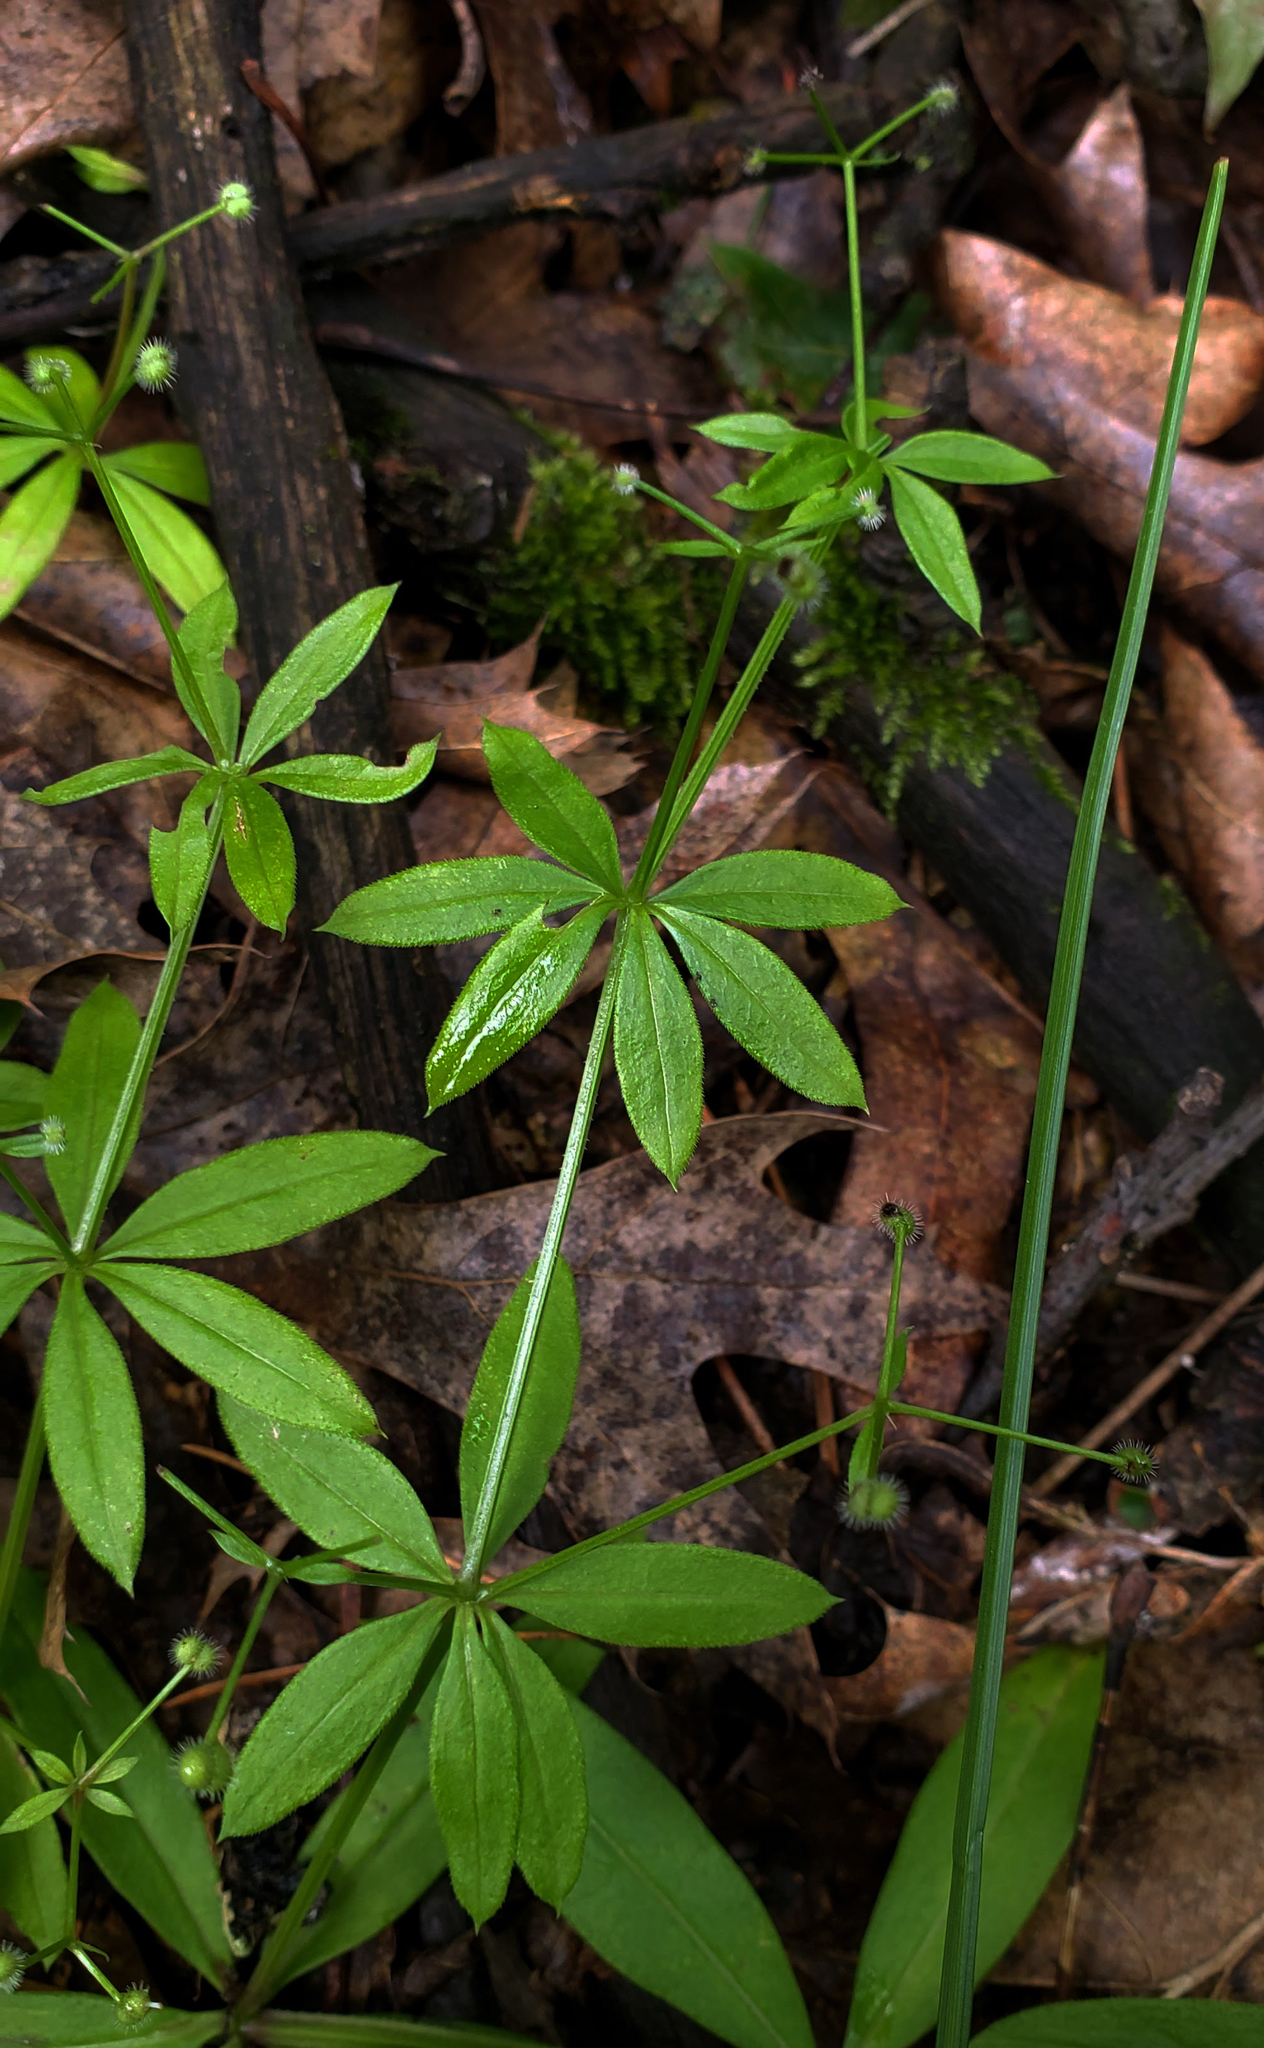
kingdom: Plantae
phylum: Tracheophyta
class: Magnoliopsida
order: Gentianales
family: Rubiaceae
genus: Galium
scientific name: Galium triflorum
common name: Fragrant bedstraw
